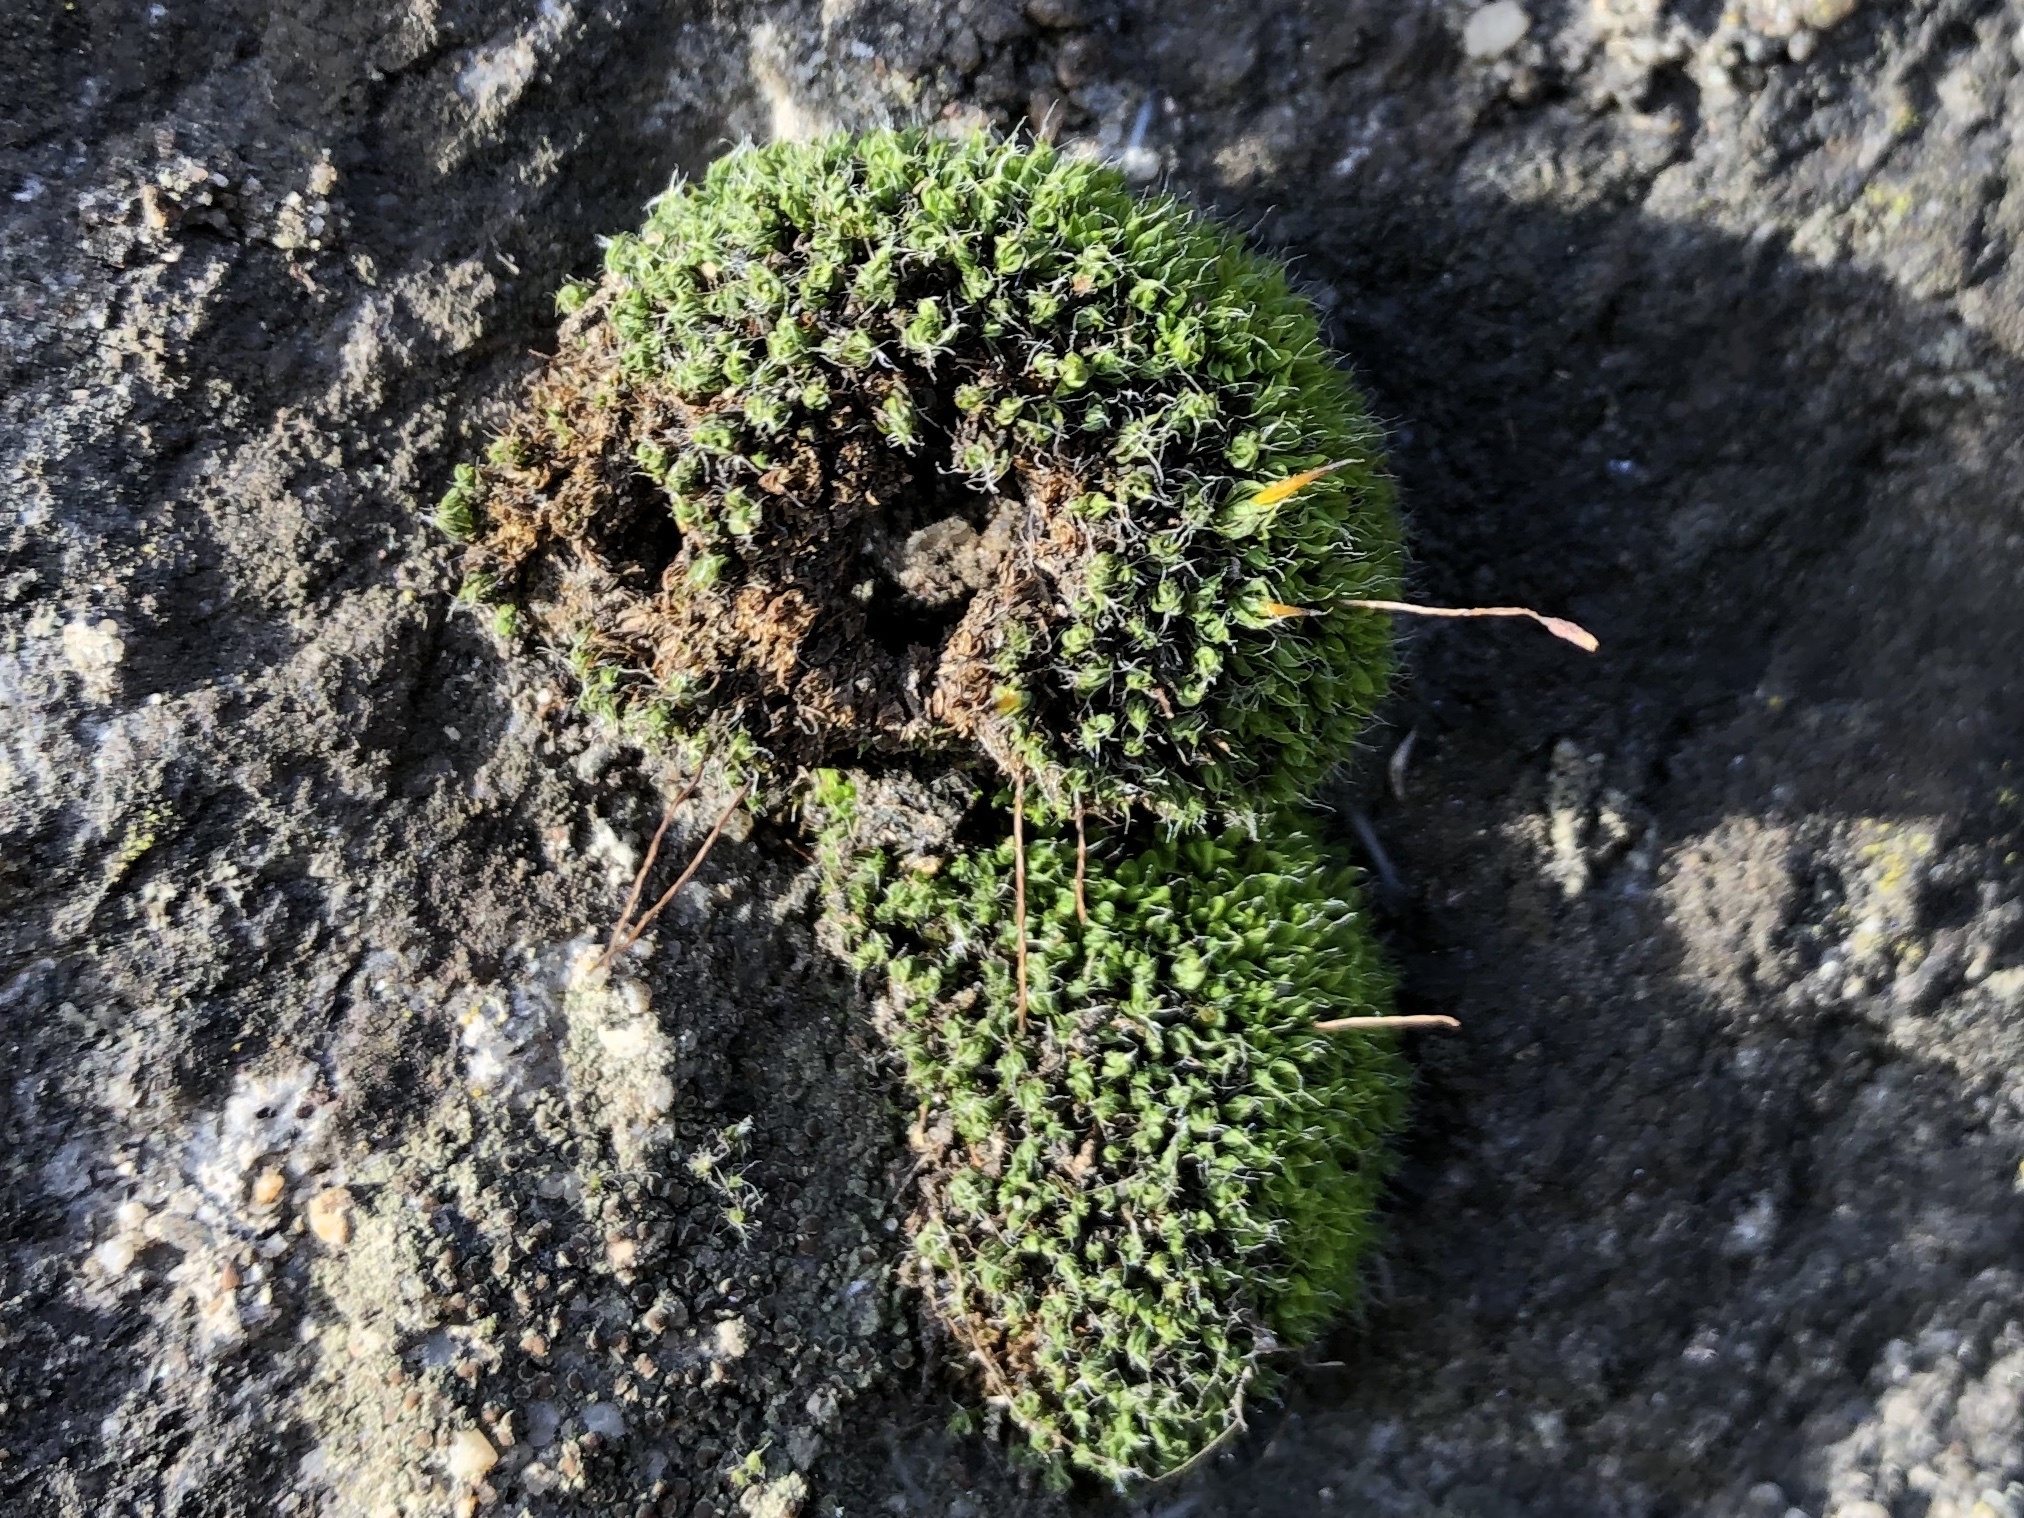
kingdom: Plantae
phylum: Bryophyta
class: Bryopsida
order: Pottiales
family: Pottiaceae
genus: Tortula
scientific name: Tortula muralis
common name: Wall screw-moss
